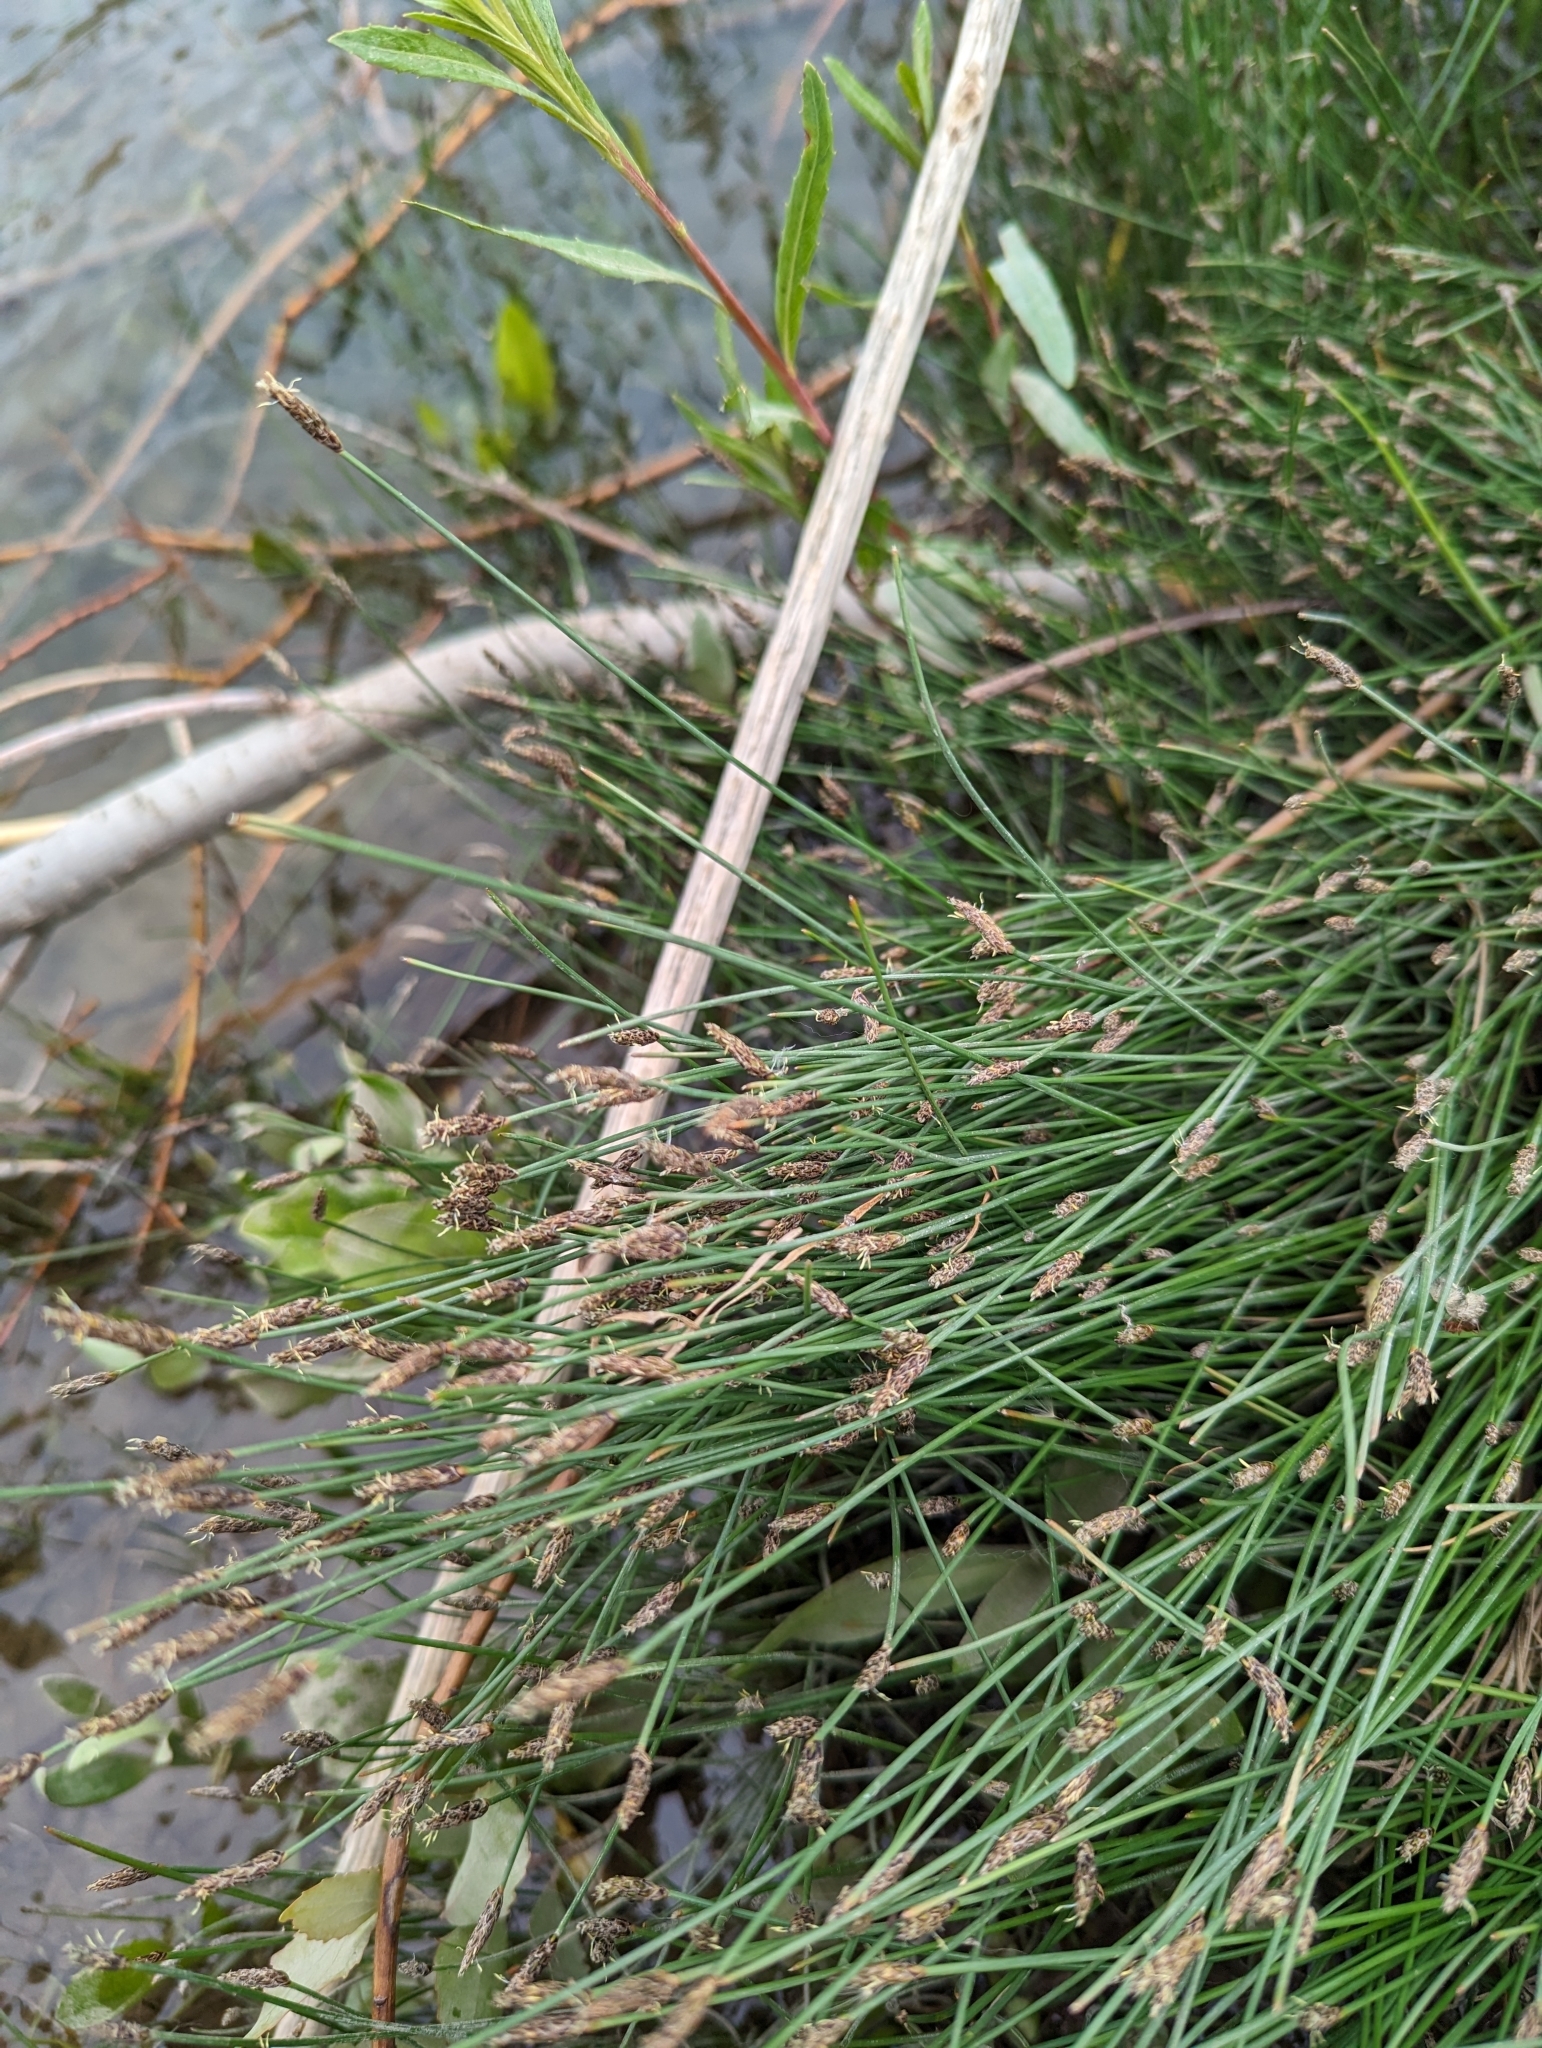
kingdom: Plantae
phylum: Tracheophyta
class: Liliopsida
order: Poales
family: Cyperaceae
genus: Eleocharis
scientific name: Eleocharis palustris
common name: Common spike-rush
